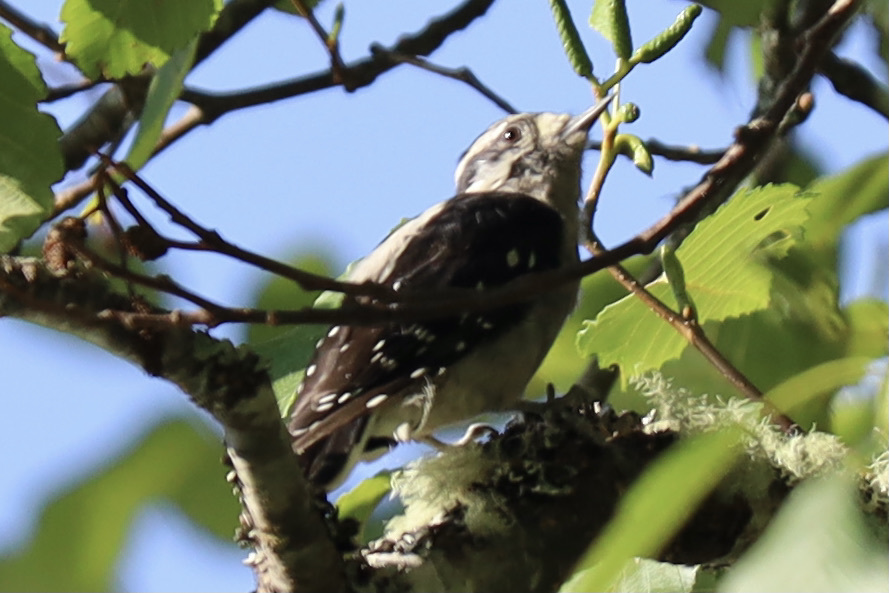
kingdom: Animalia
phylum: Chordata
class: Aves
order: Piciformes
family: Picidae
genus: Dryobates
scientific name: Dryobates pubescens
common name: Downy woodpecker
